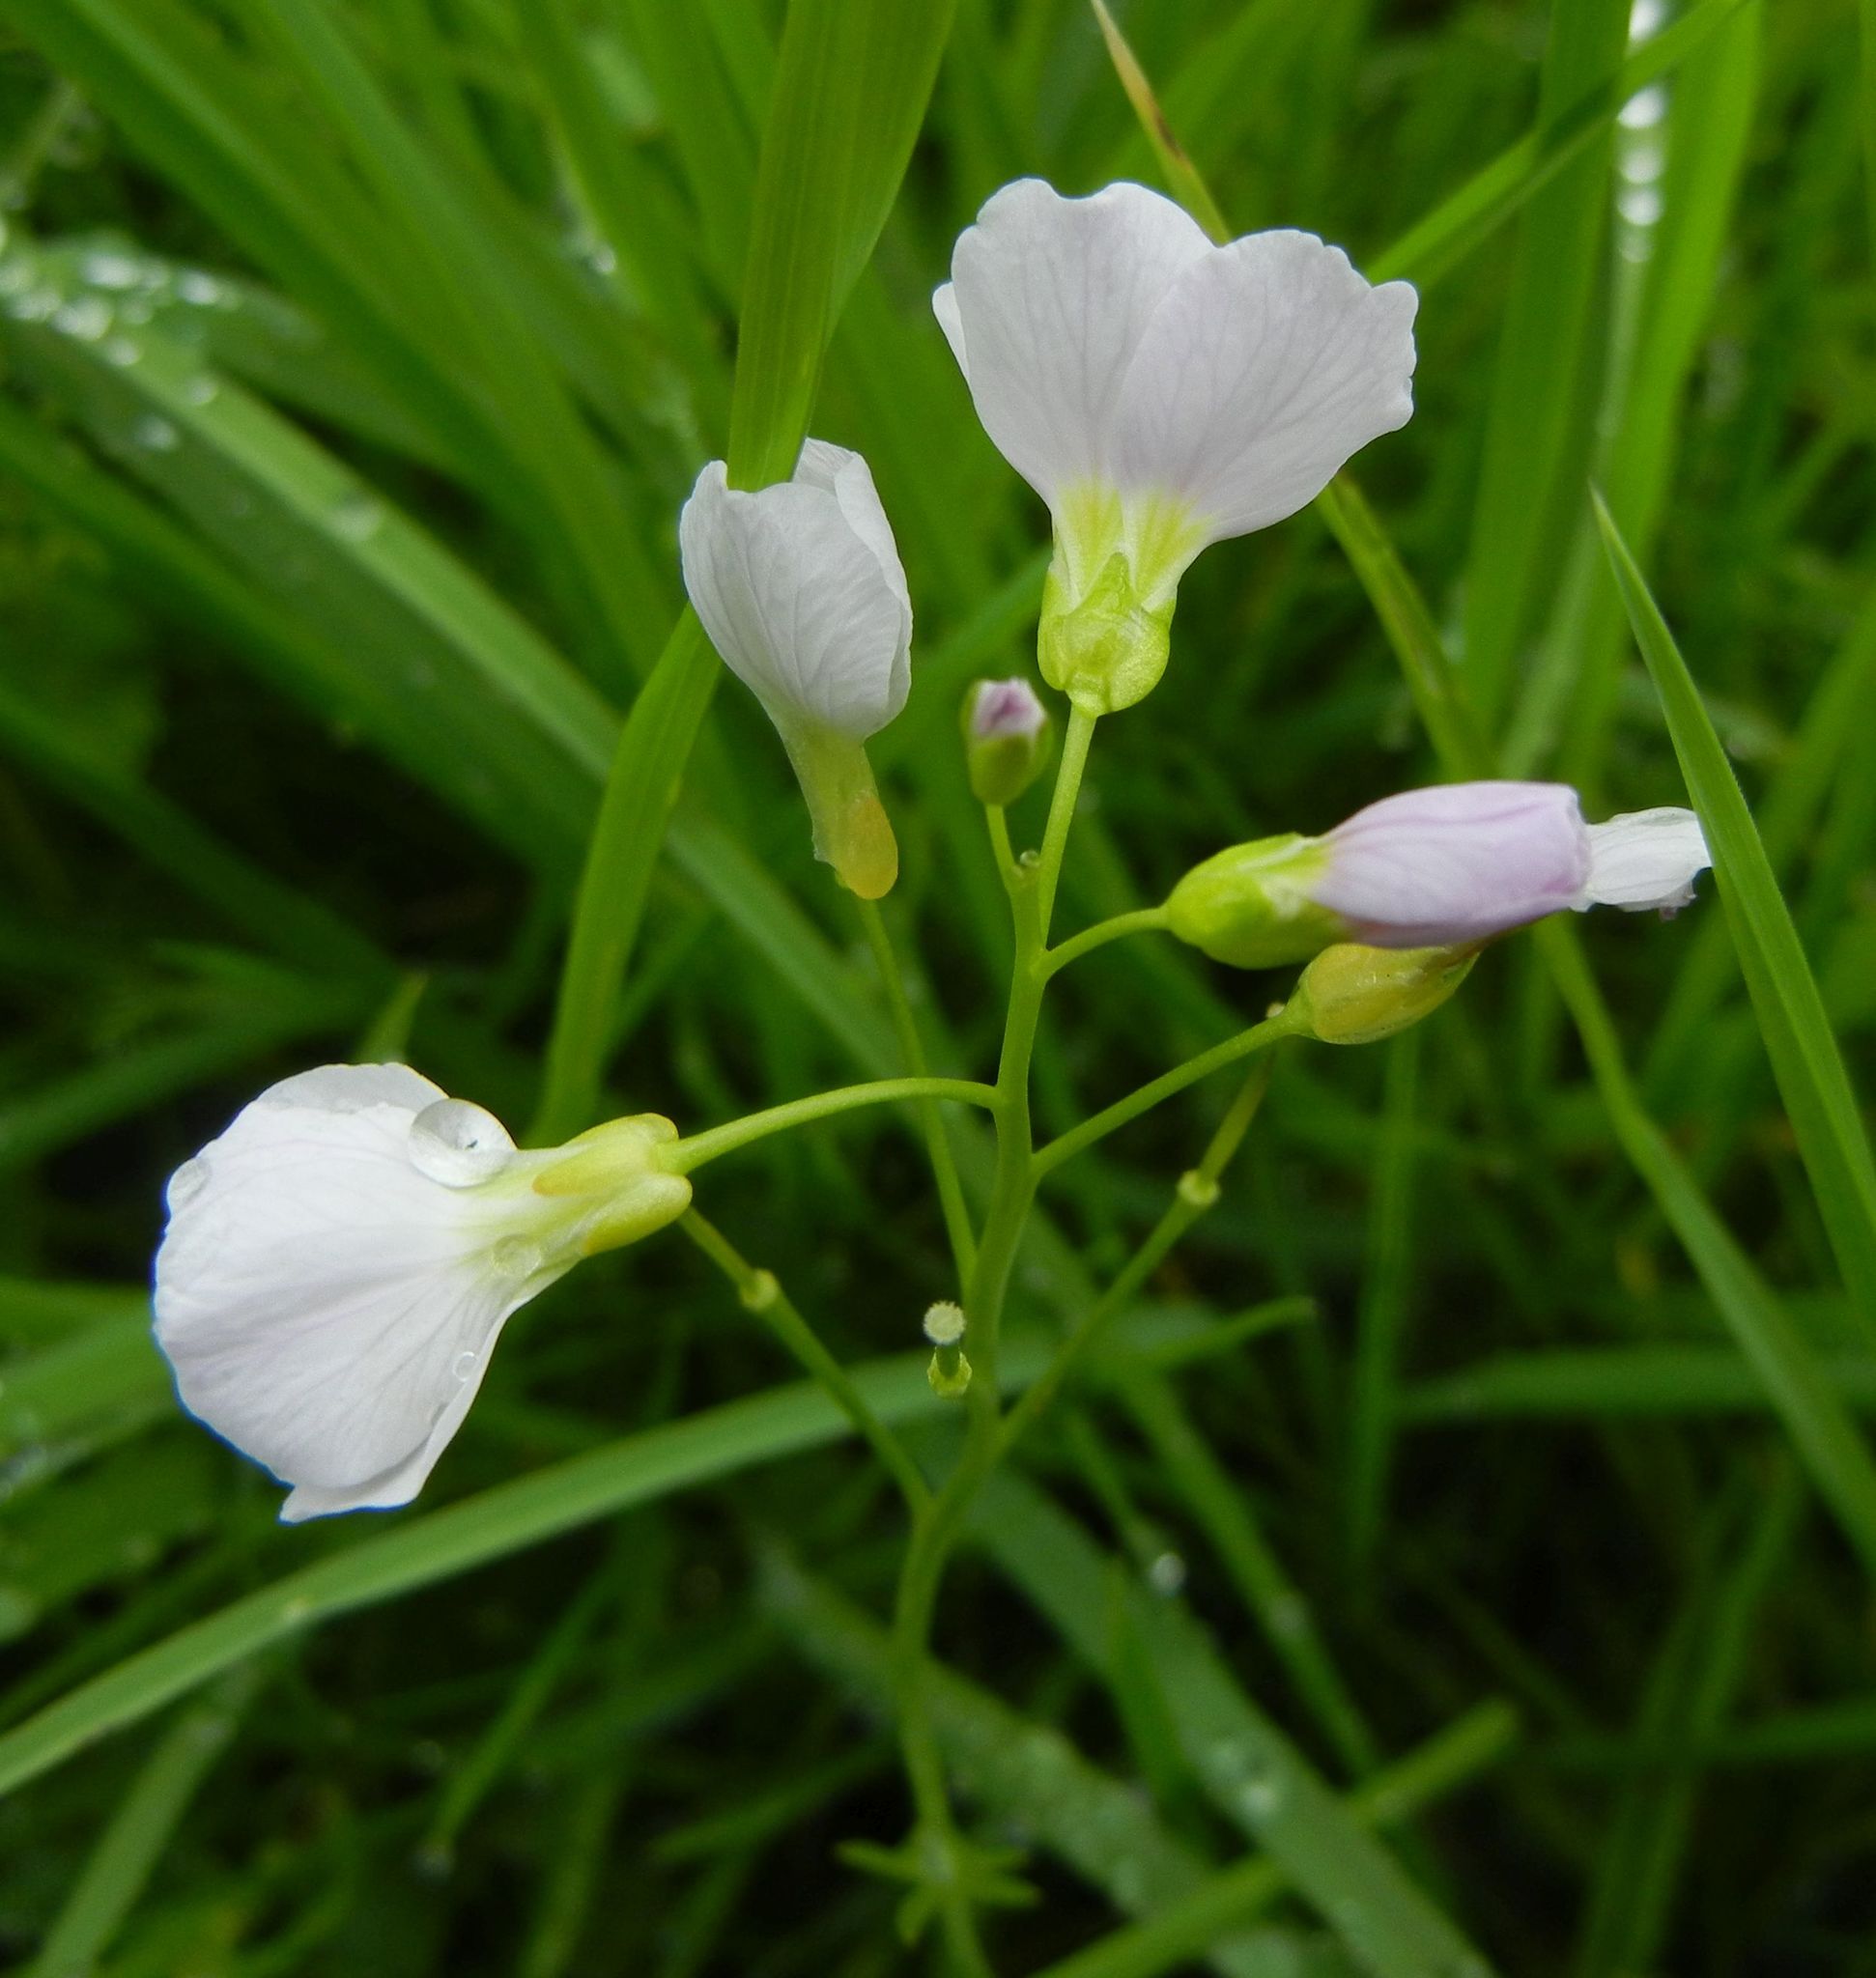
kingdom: Plantae
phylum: Tracheophyta
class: Magnoliopsida
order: Brassicales
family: Brassicaceae
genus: Cardamine
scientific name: Cardamine pratensis
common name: Cuckoo flower
